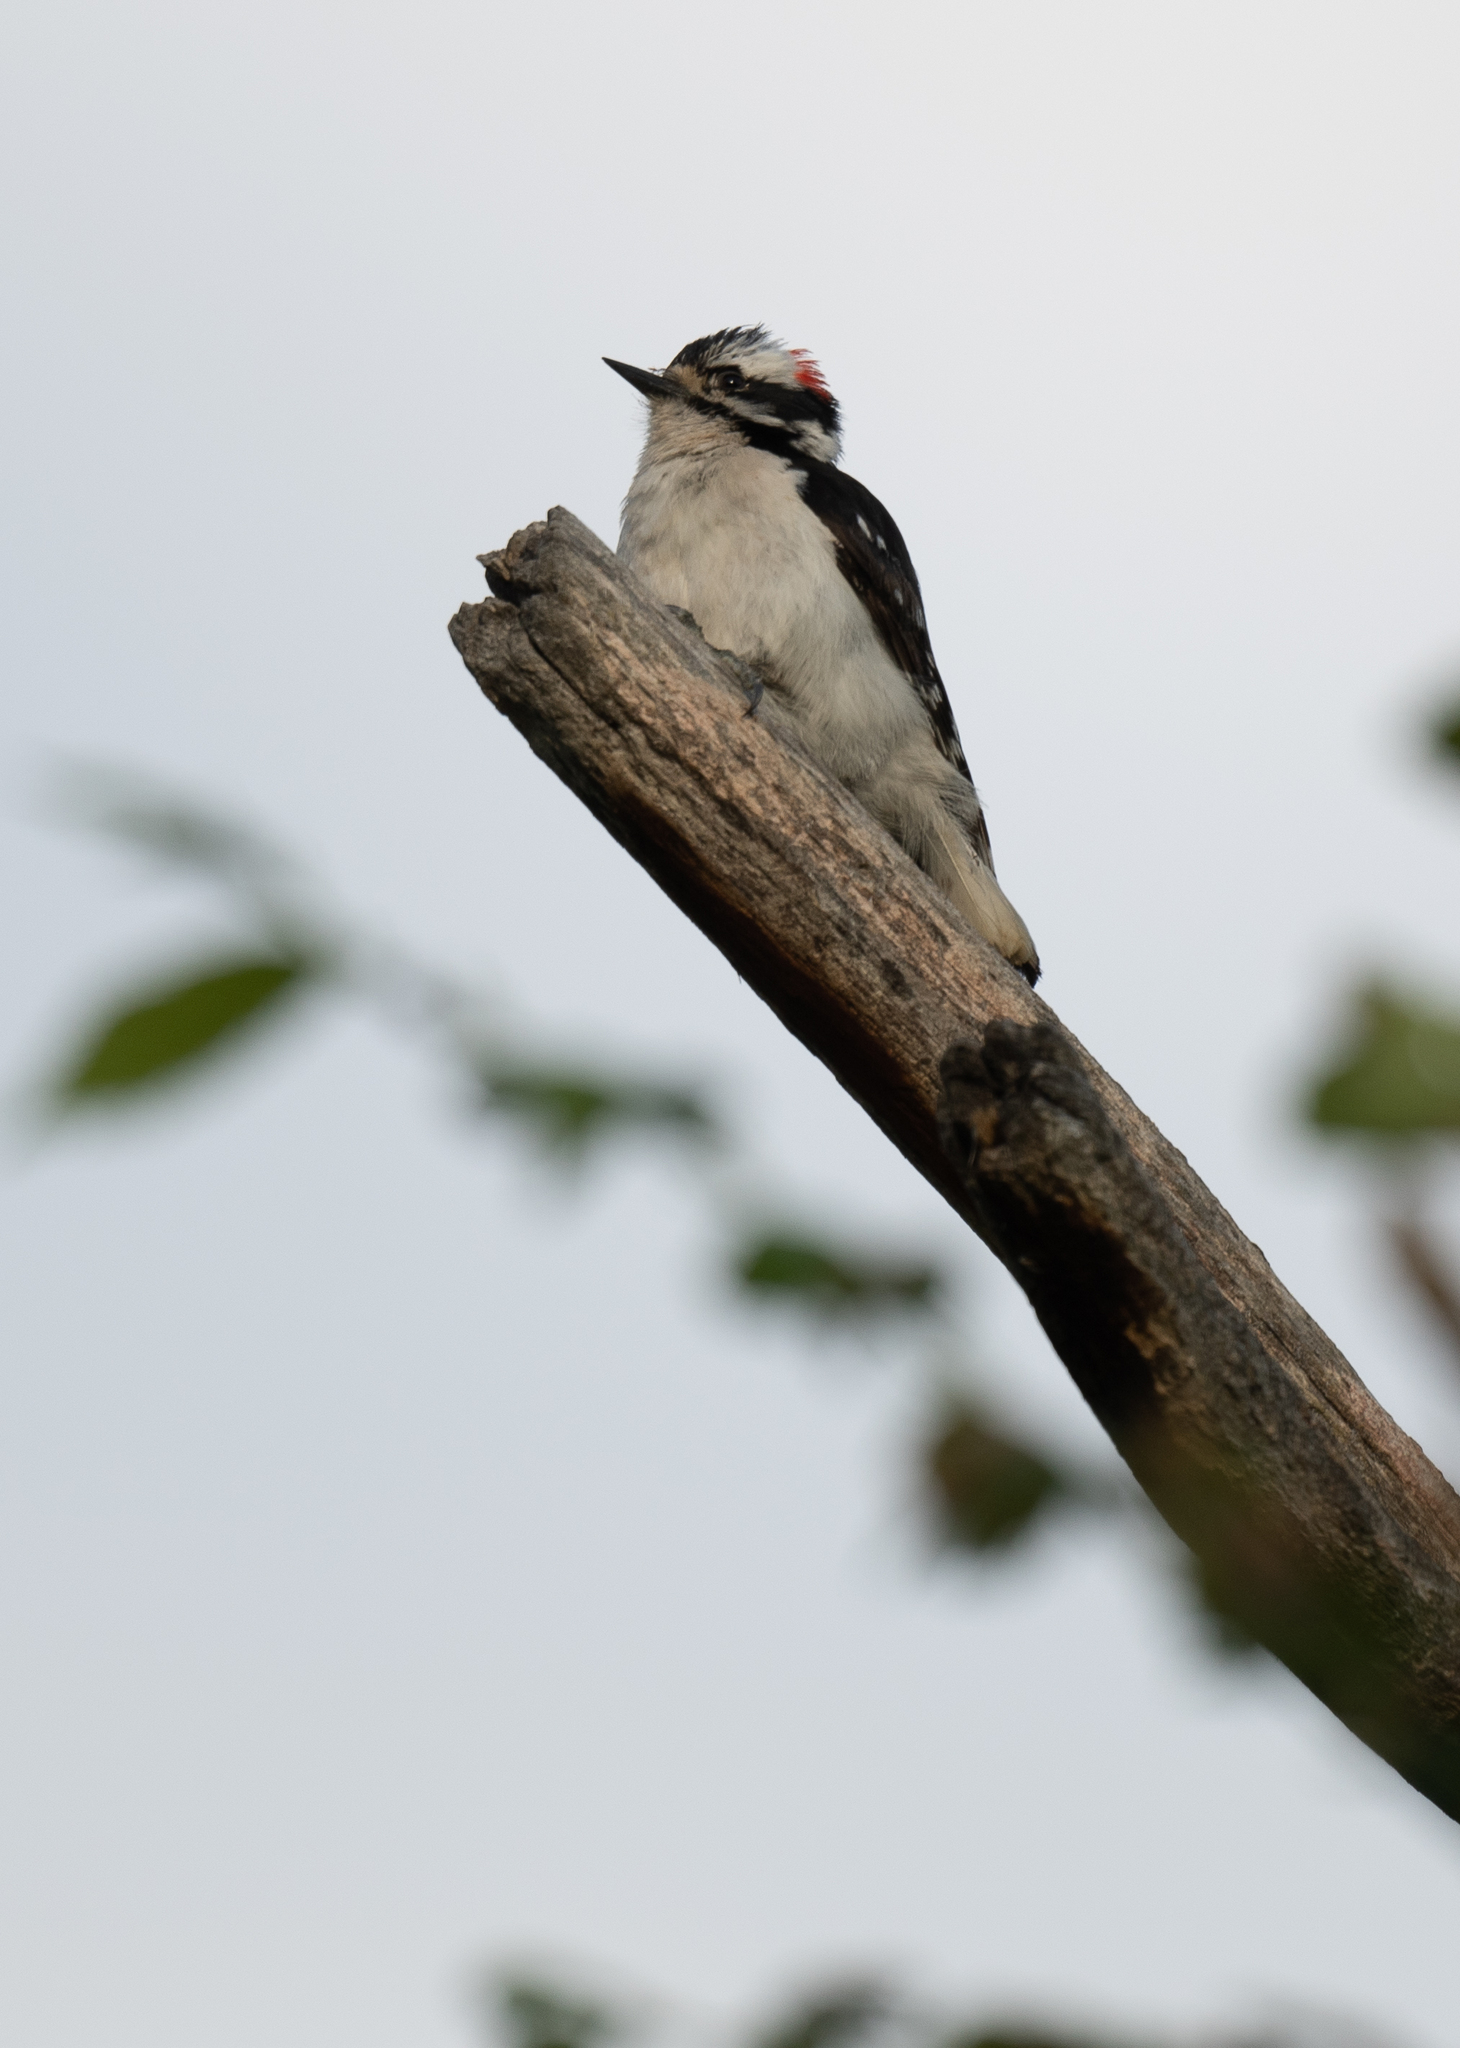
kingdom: Animalia
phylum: Chordata
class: Aves
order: Piciformes
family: Picidae
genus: Dryobates
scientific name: Dryobates pubescens
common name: Downy woodpecker
